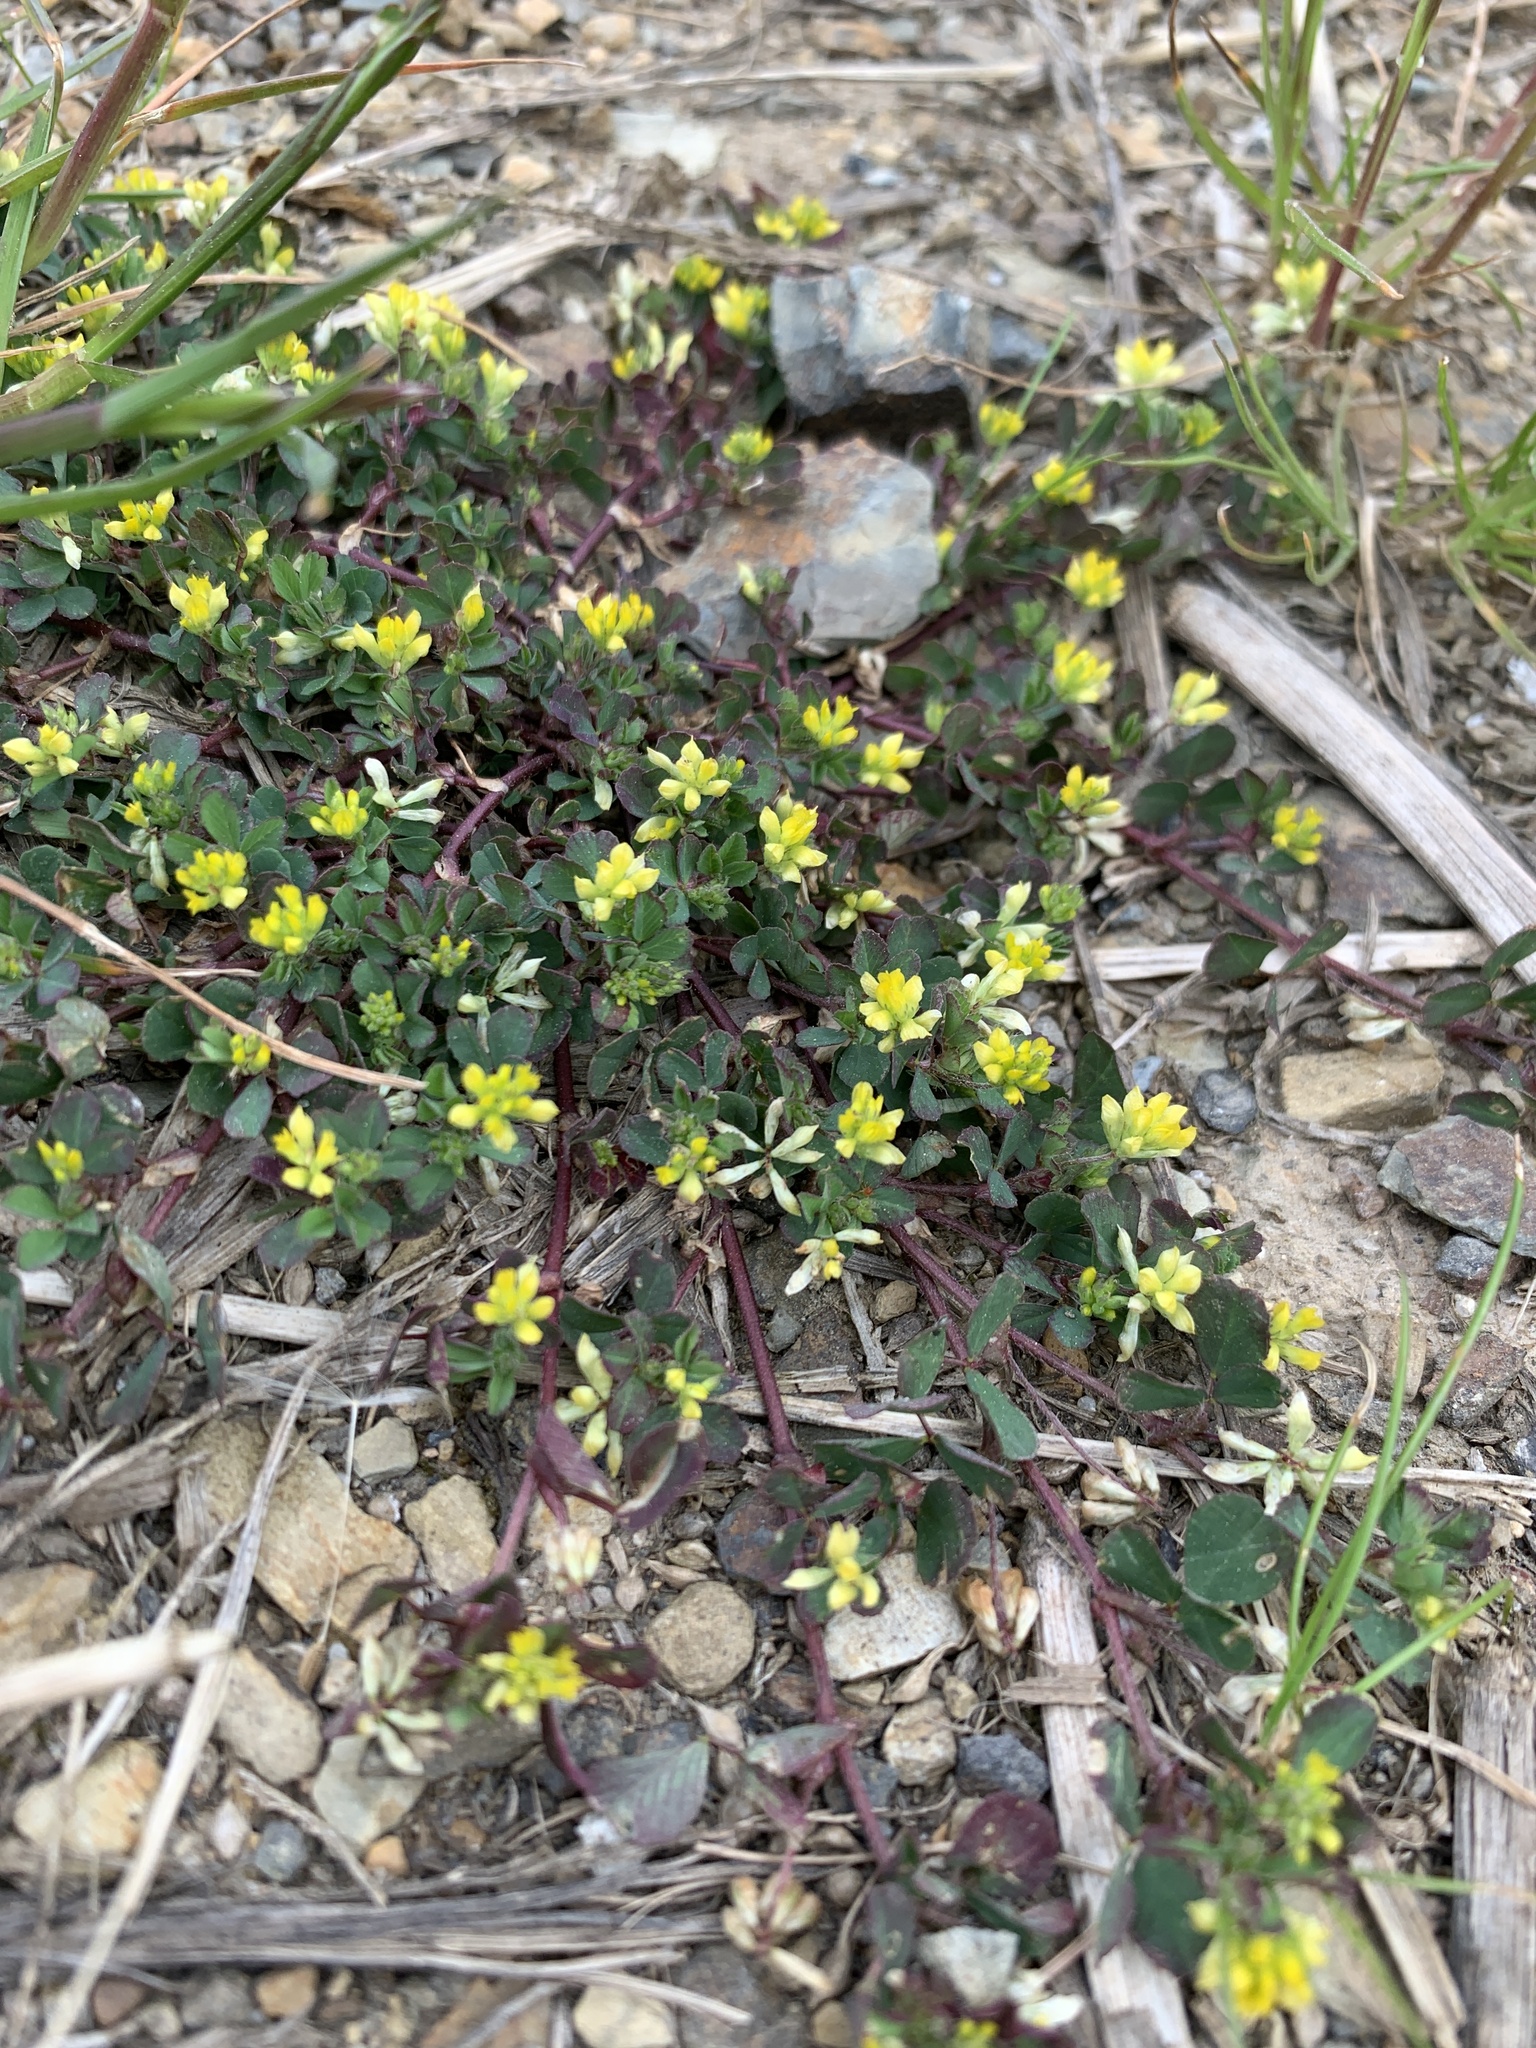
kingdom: Plantae
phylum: Tracheophyta
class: Magnoliopsida
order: Fabales
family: Fabaceae
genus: Trifolium
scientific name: Trifolium dubium
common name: Suckling clover
